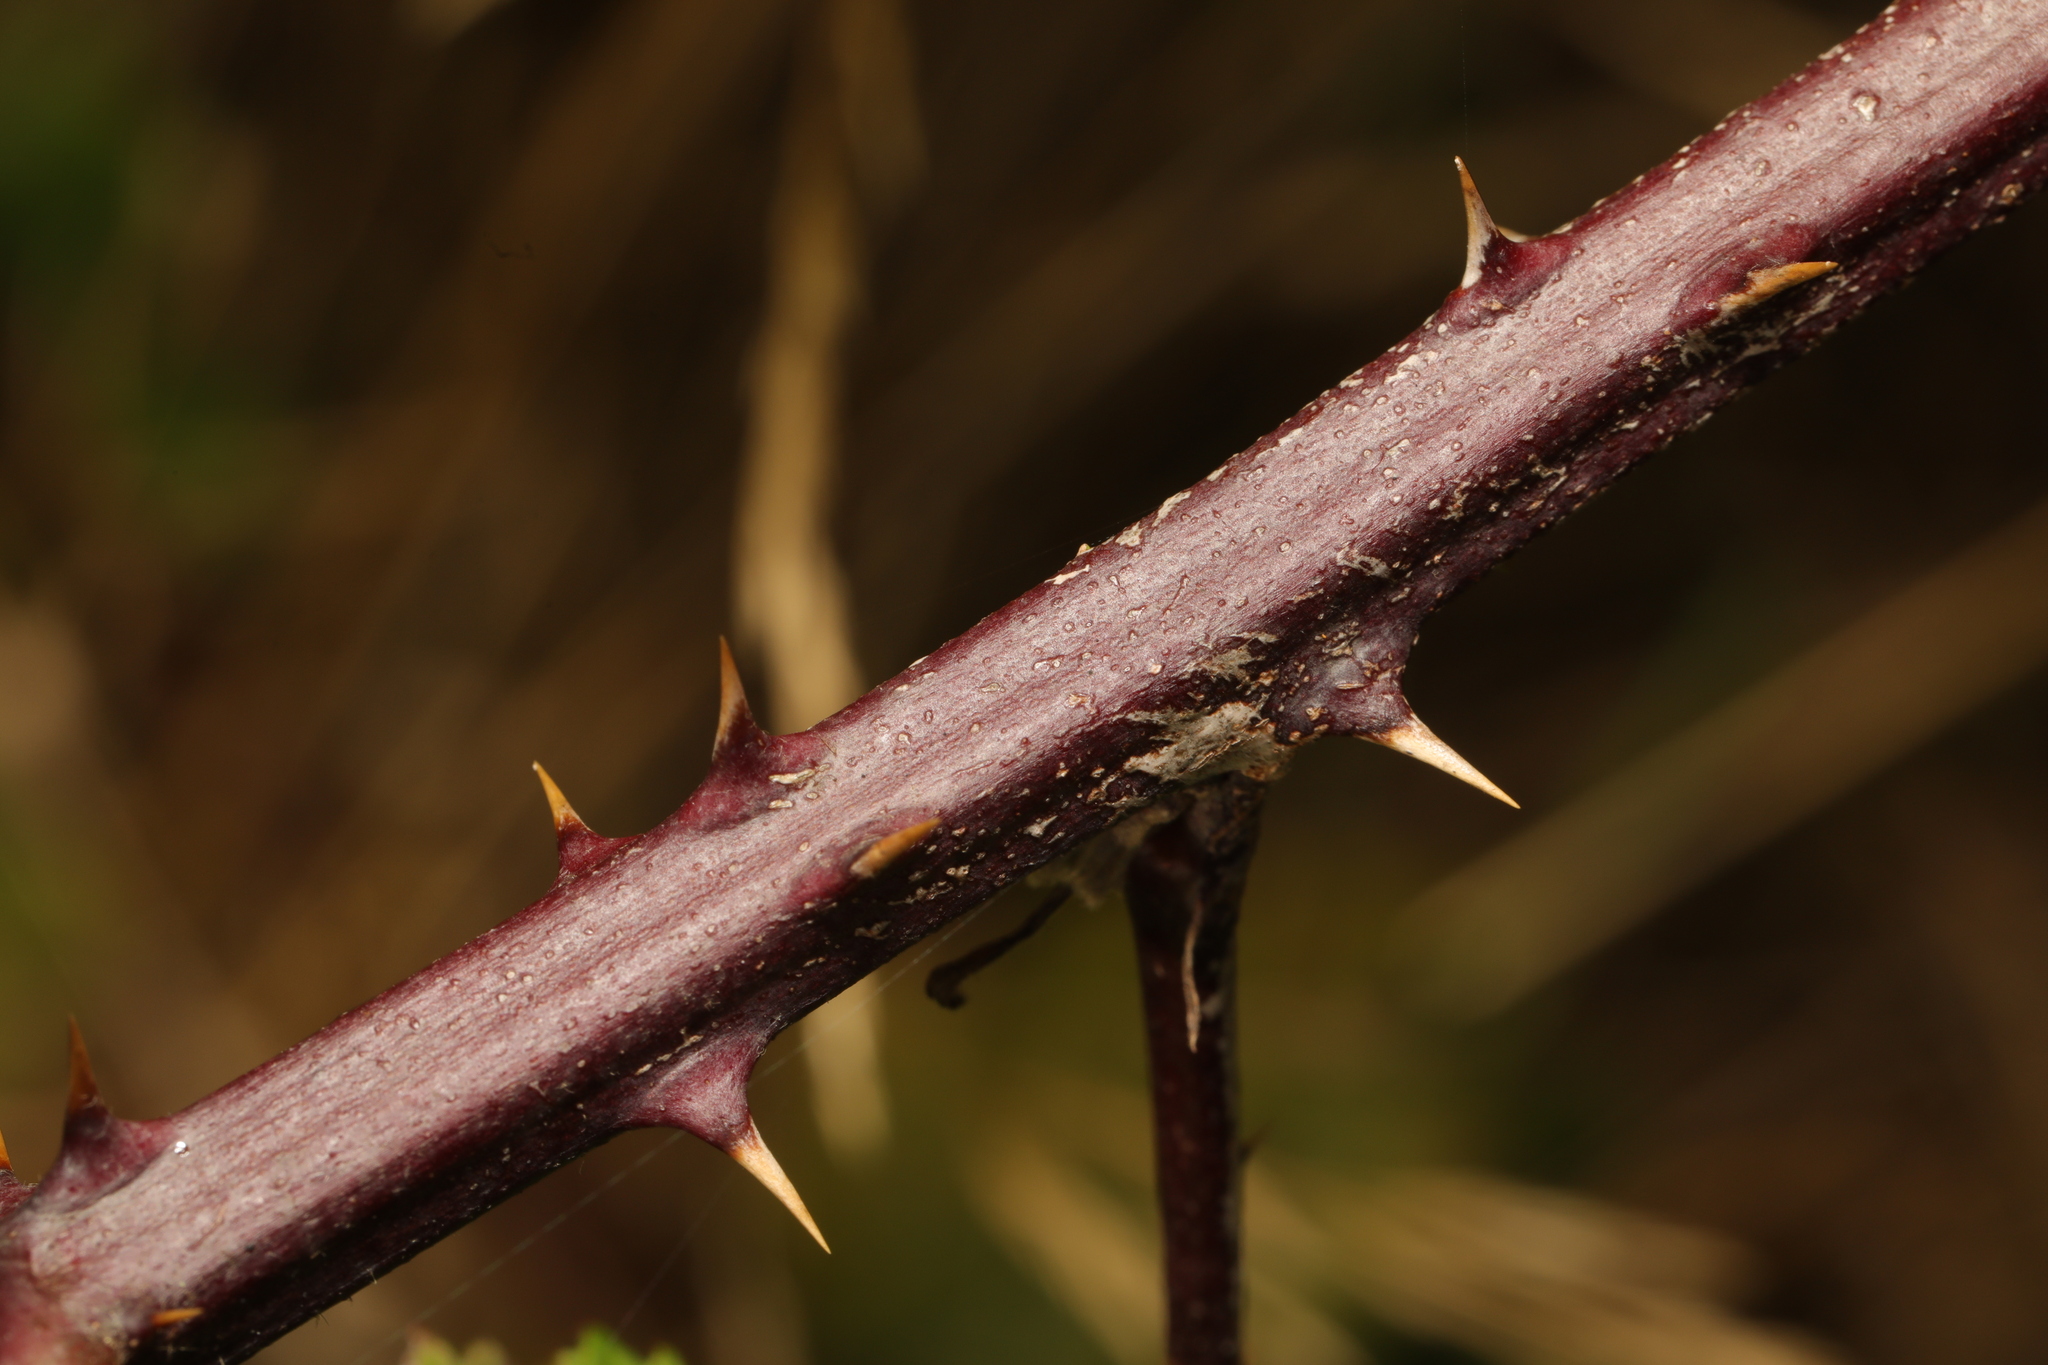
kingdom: Plantae
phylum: Tracheophyta
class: Magnoliopsida
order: Rosales
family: Rosaceae
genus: Rubus
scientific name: Rubus armeniacus
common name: Himalayan blackberry
